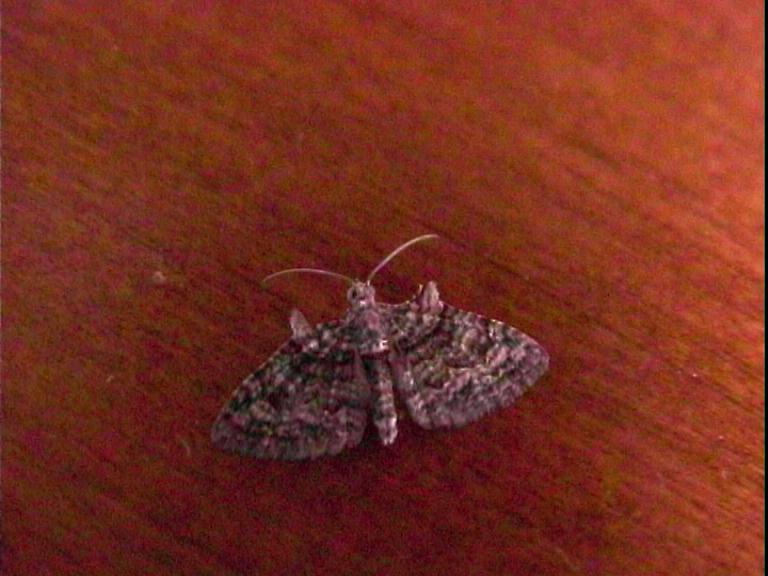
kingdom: Animalia
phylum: Arthropoda
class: Insecta
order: Lepidoptera
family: Geometridae
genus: Phrissogonus
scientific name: Phrissogonus laticostata
